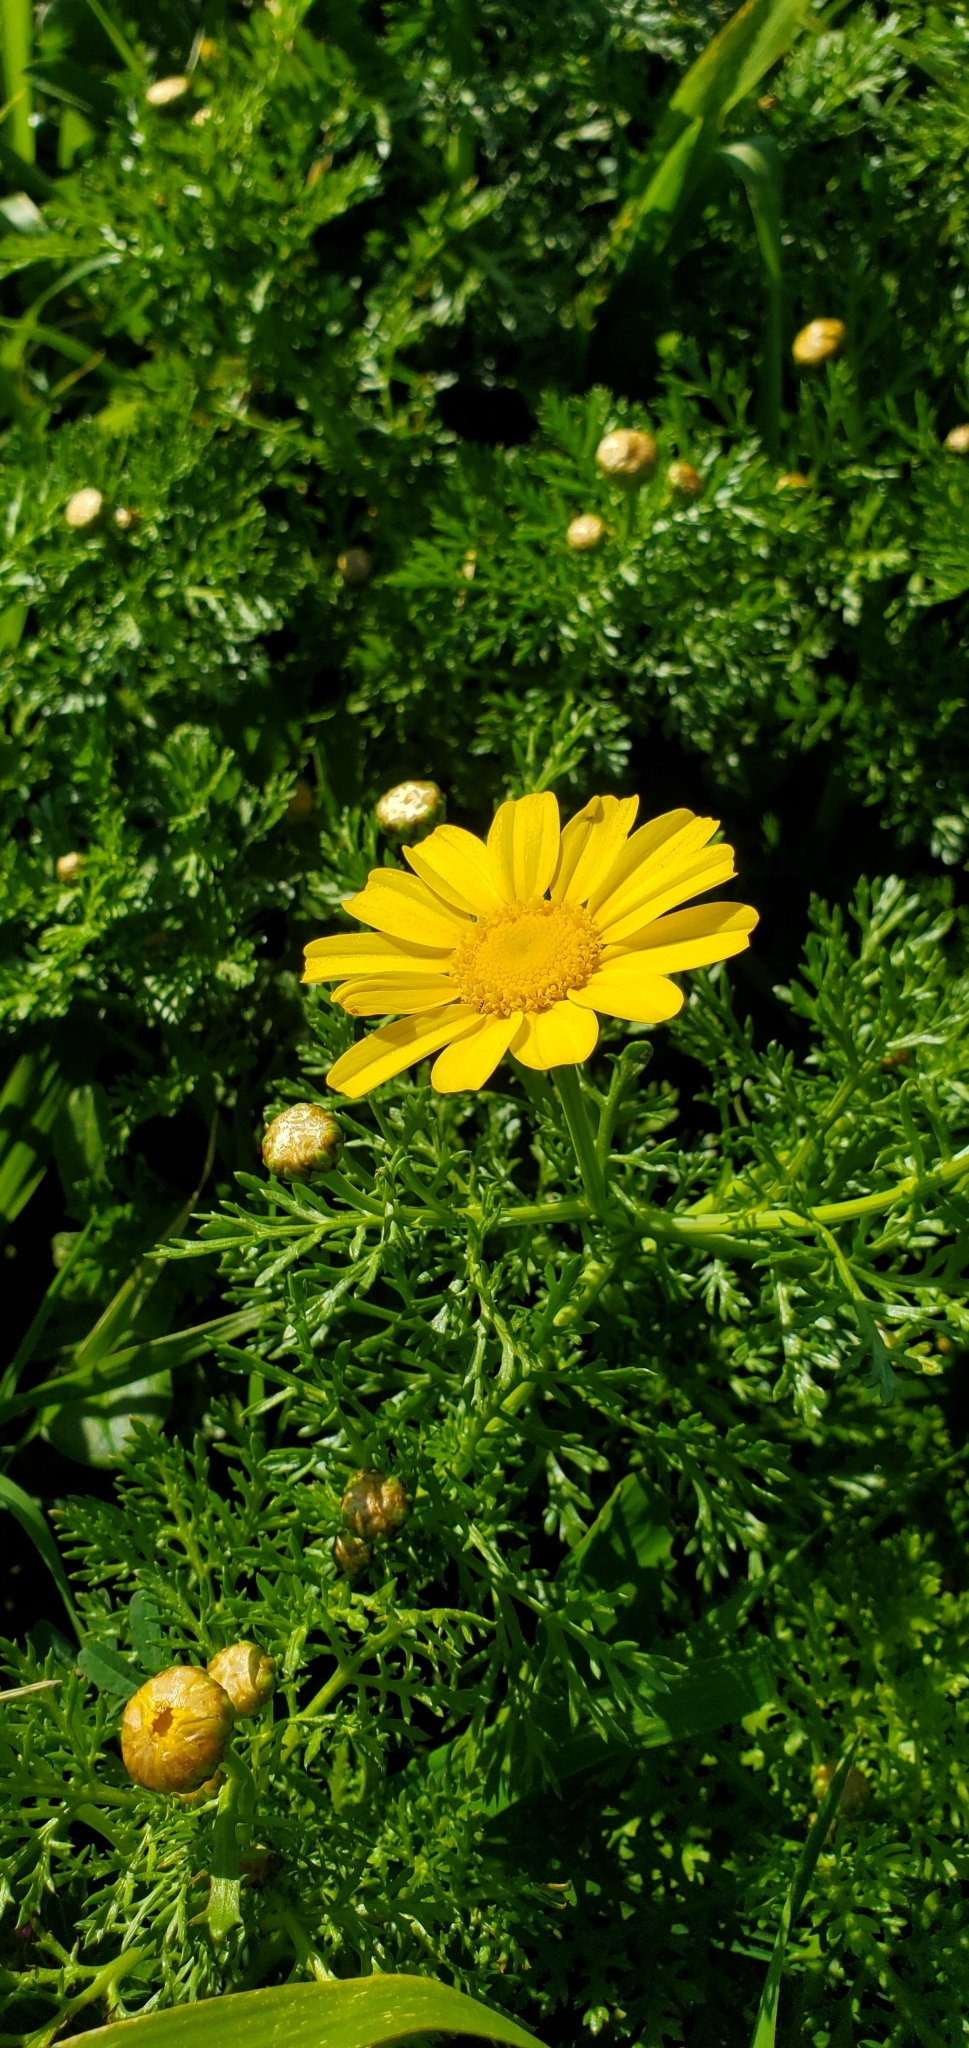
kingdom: Plantae
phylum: Tracheophyta
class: Magnoliopsida
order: Asterales
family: Asteraceae
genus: Glebionis
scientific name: Glebionis coronaria
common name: Crowndaisy
